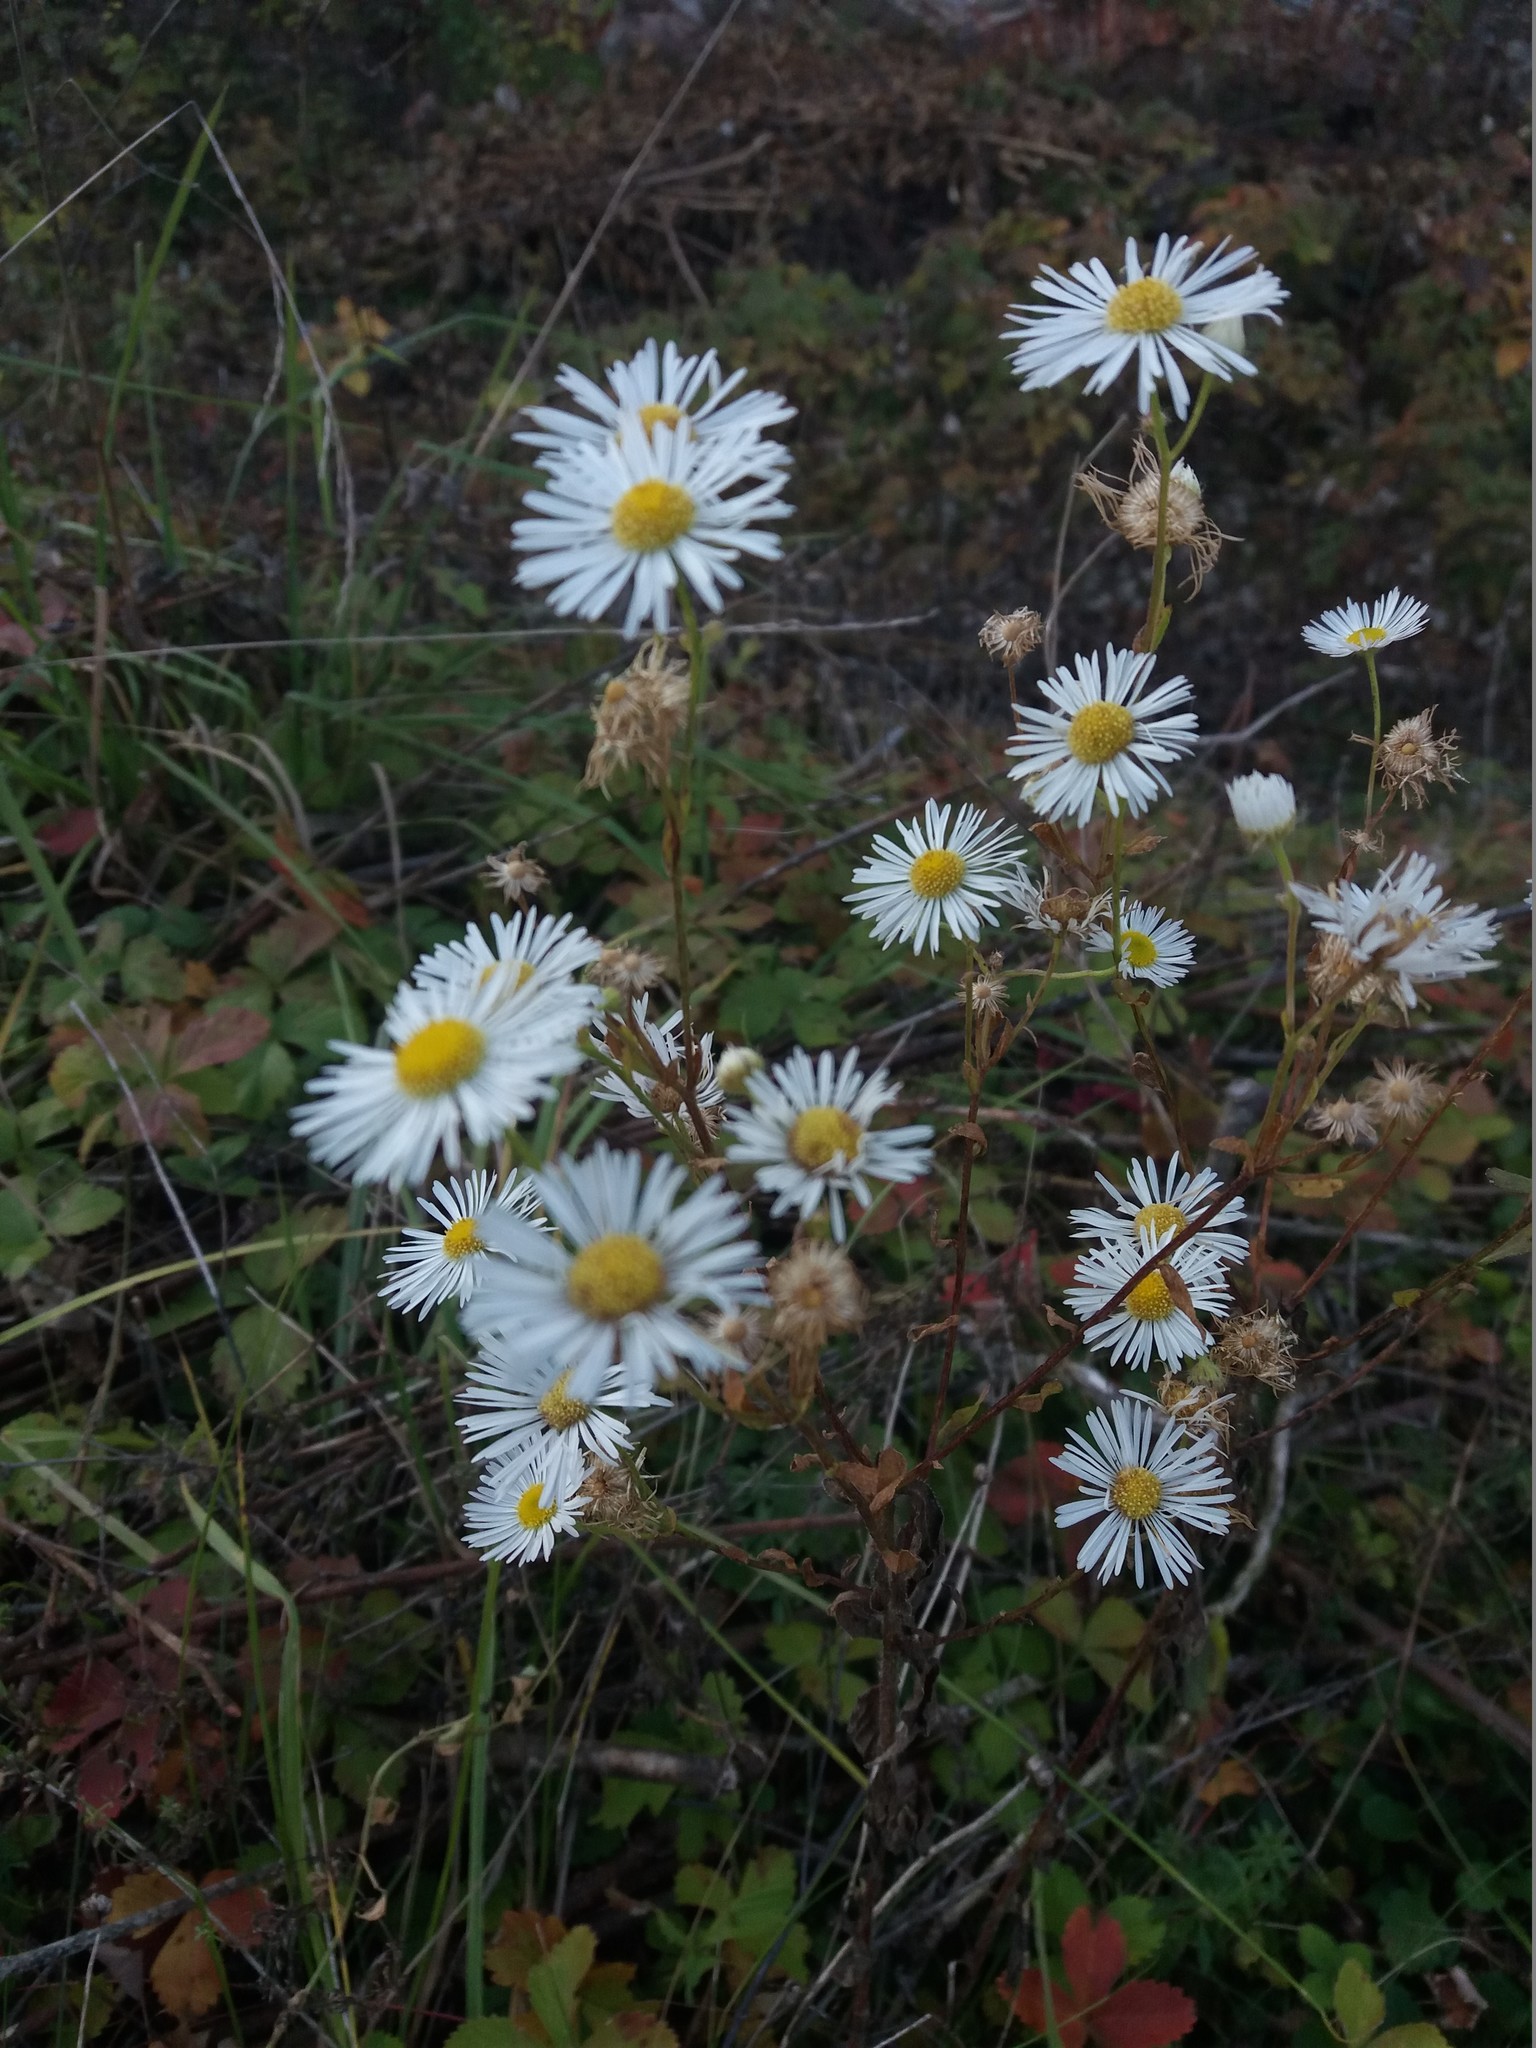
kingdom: Plantae
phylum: Tracheophyta
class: Magnoliopsida
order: Asterales
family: Asteraceae
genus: Erigeron
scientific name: Erigeron annuus
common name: Tall fleabane
